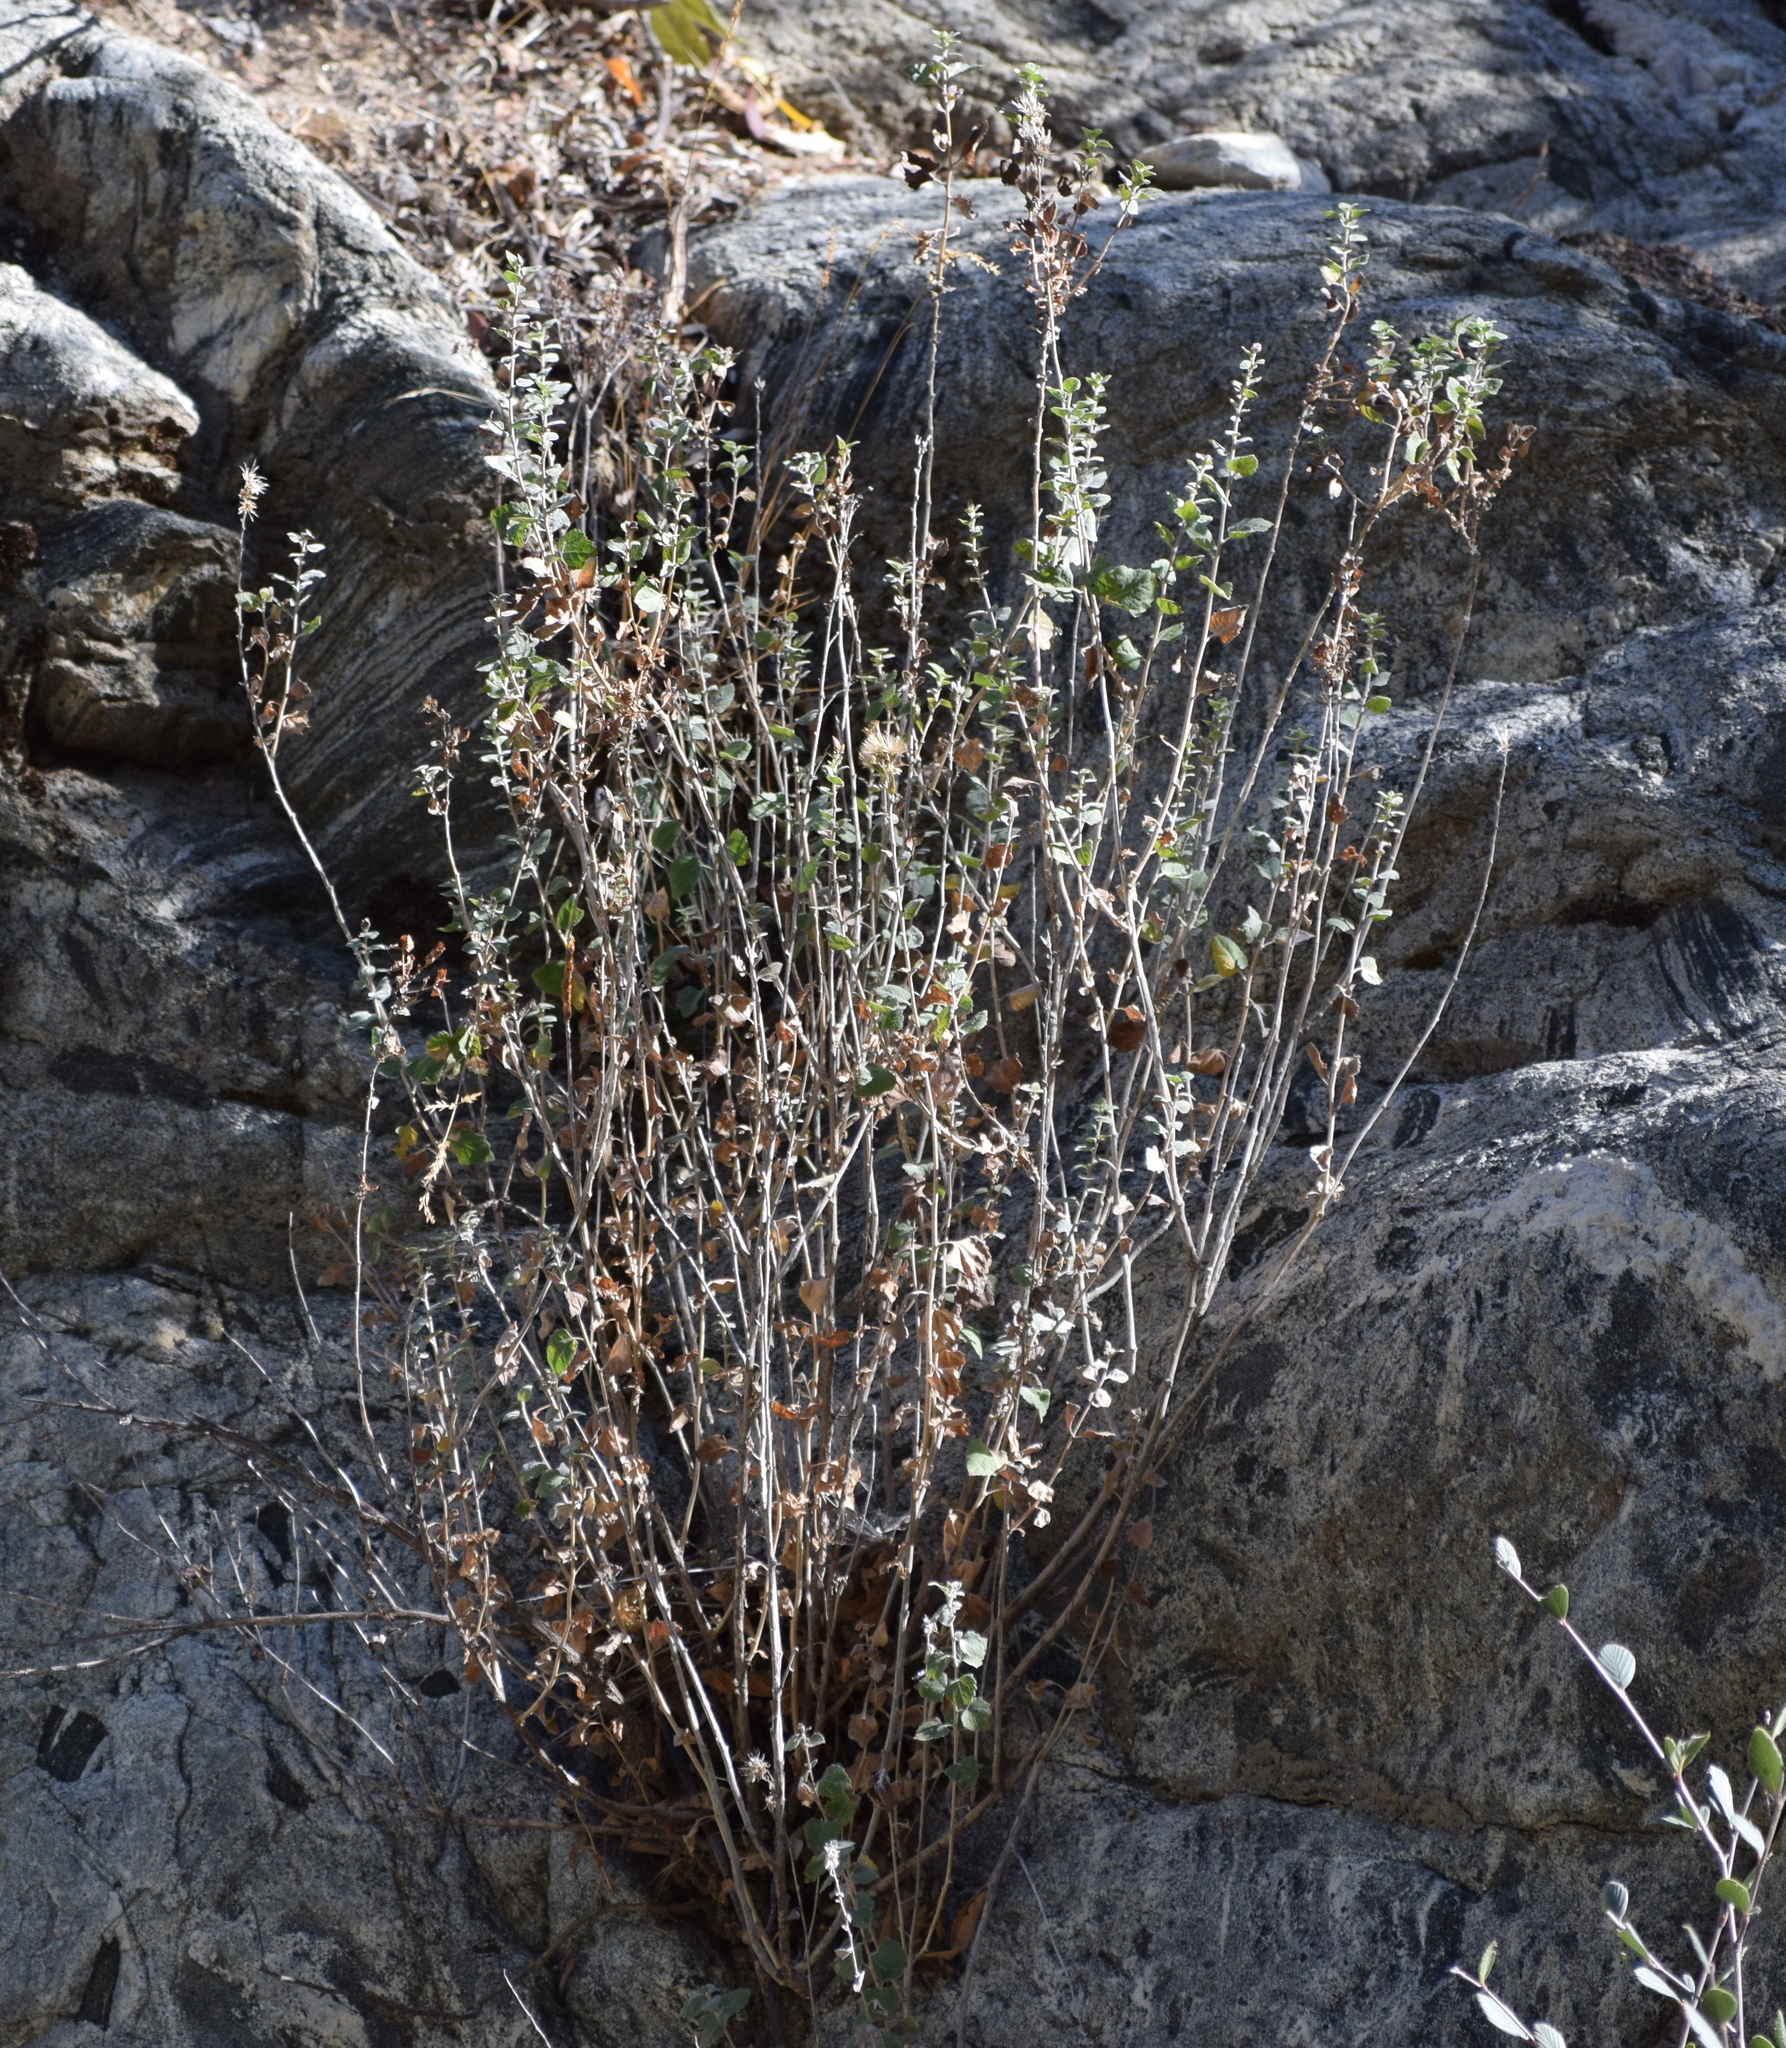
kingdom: Plantae
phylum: Tracheophyta
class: Magnoliopsida
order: Asterales
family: Asteraceae
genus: Brickellia
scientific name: Brickellia californica
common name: California brickellbush
